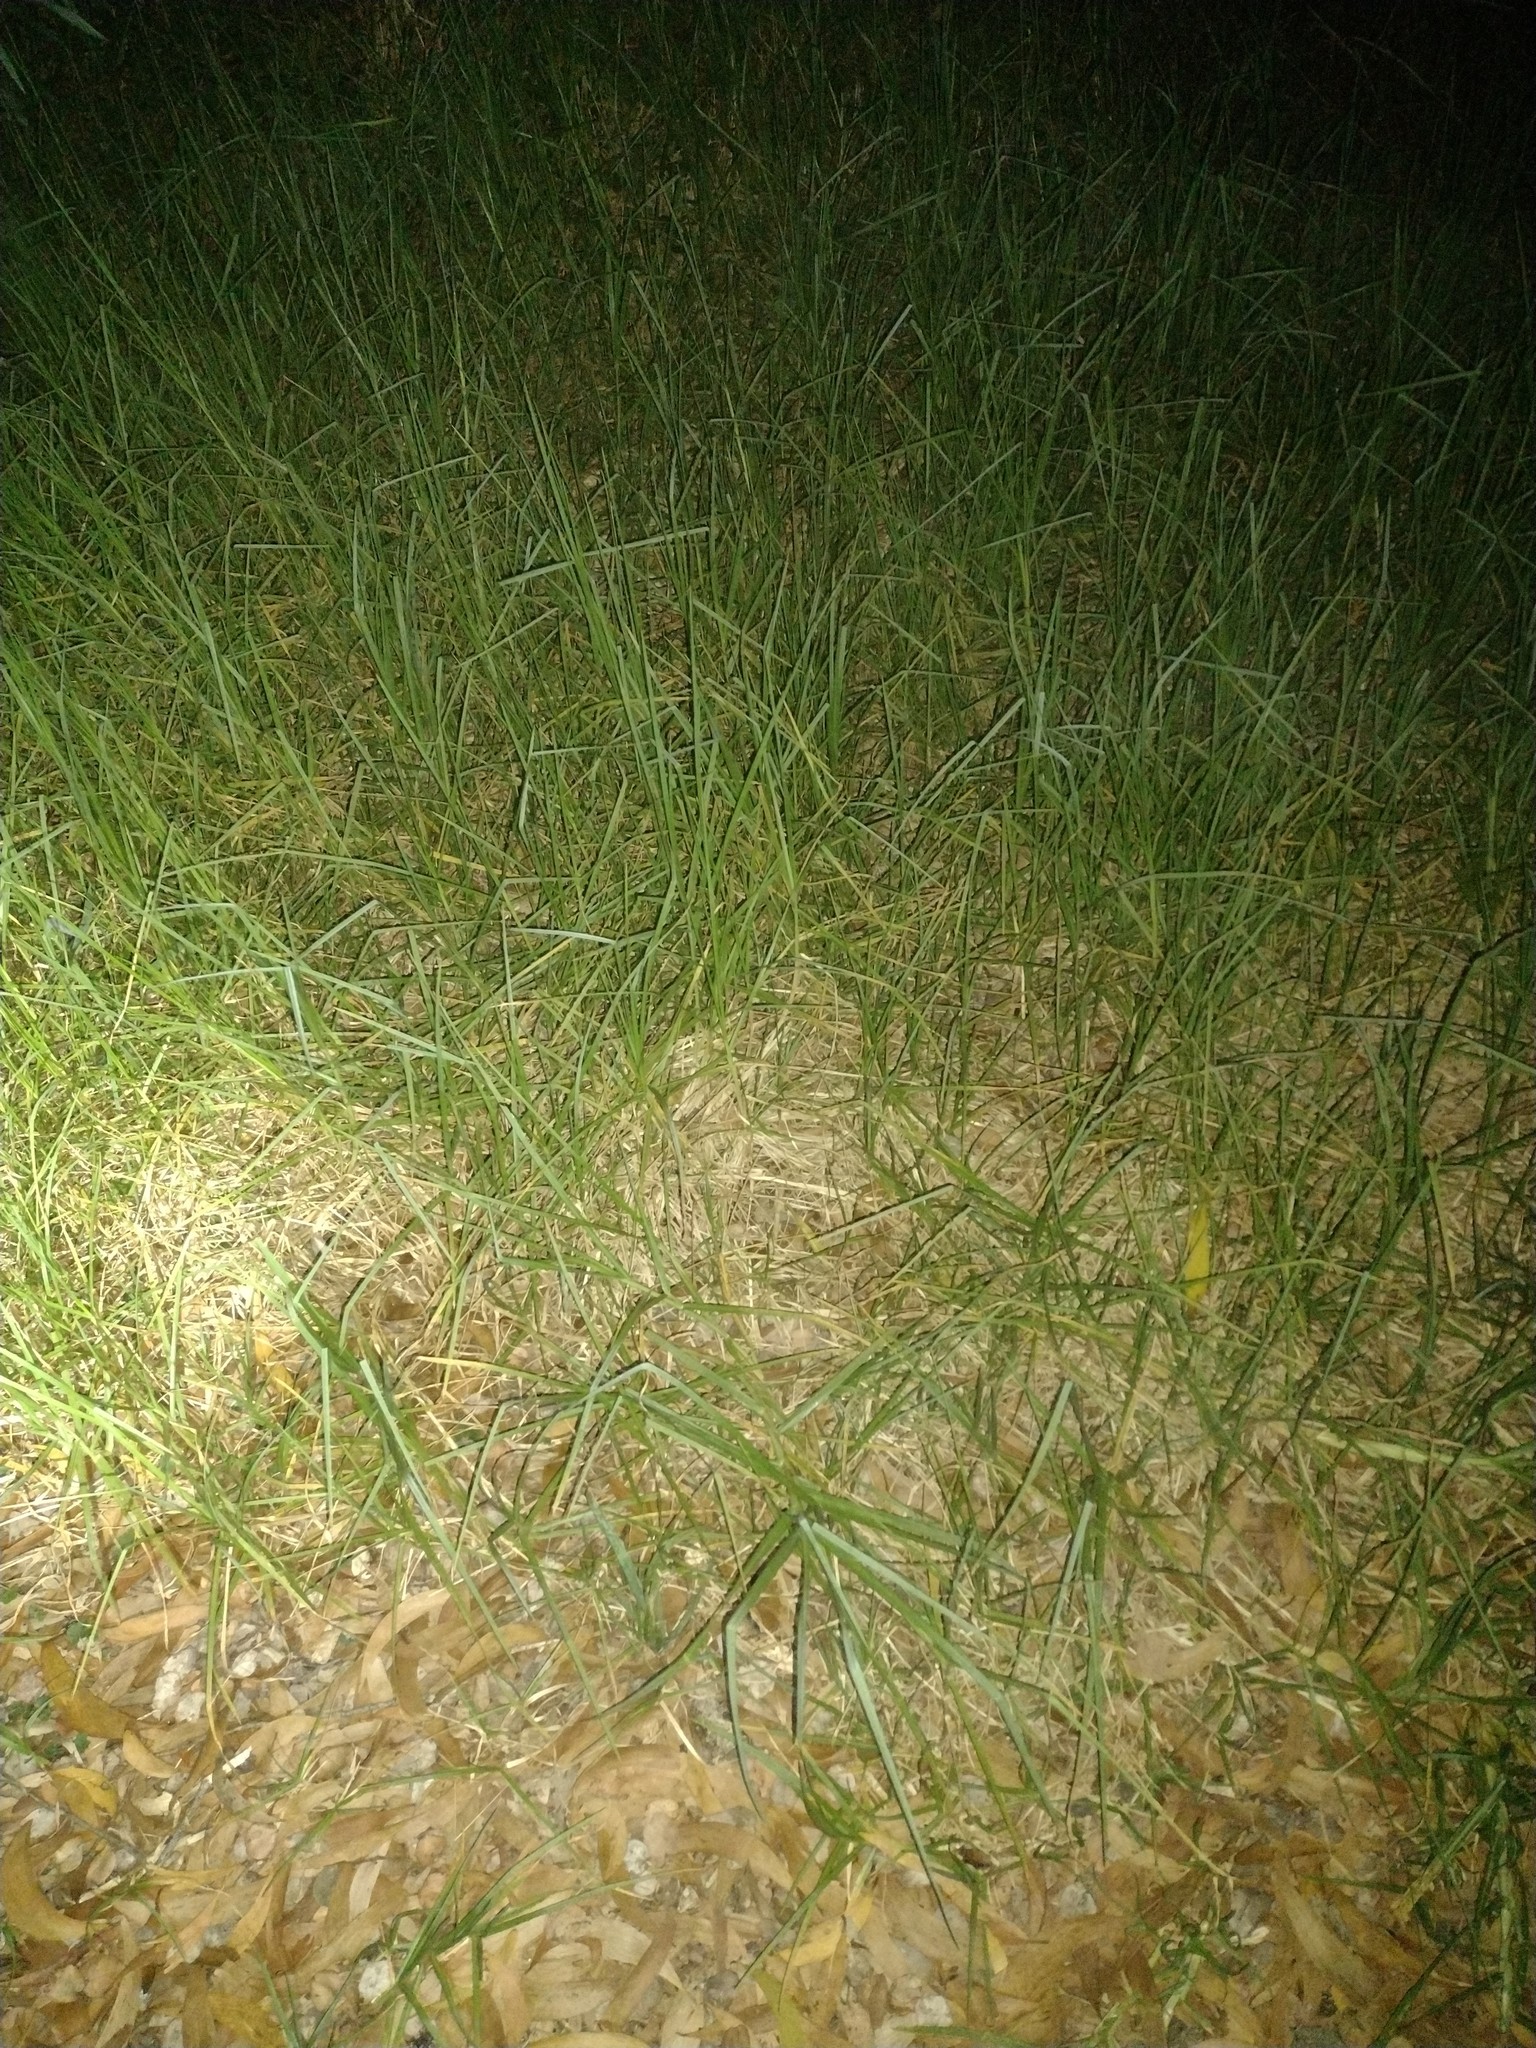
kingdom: Plantae
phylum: Tracheophyta
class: Liliopsida
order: Poales
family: Poaceae
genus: Cenchrus
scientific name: Cenchrus clandestinus
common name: Kikuyugrass
